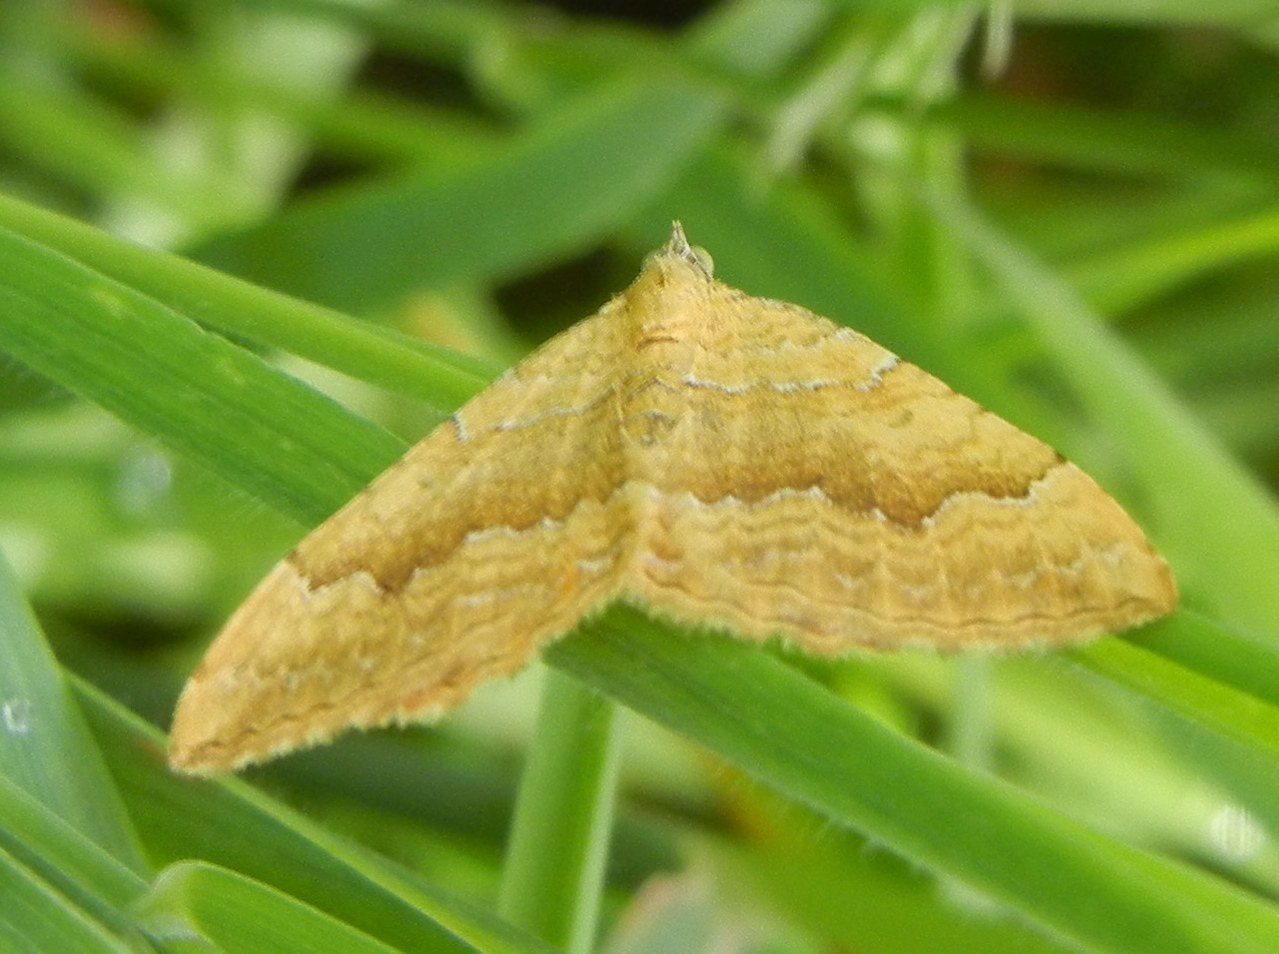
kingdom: Animalia
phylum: Arthropoda
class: Insecta
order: Lepidoptera
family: Geometridae
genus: Camptogramma
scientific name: Camptogramma bilineata
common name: Yellow shell
